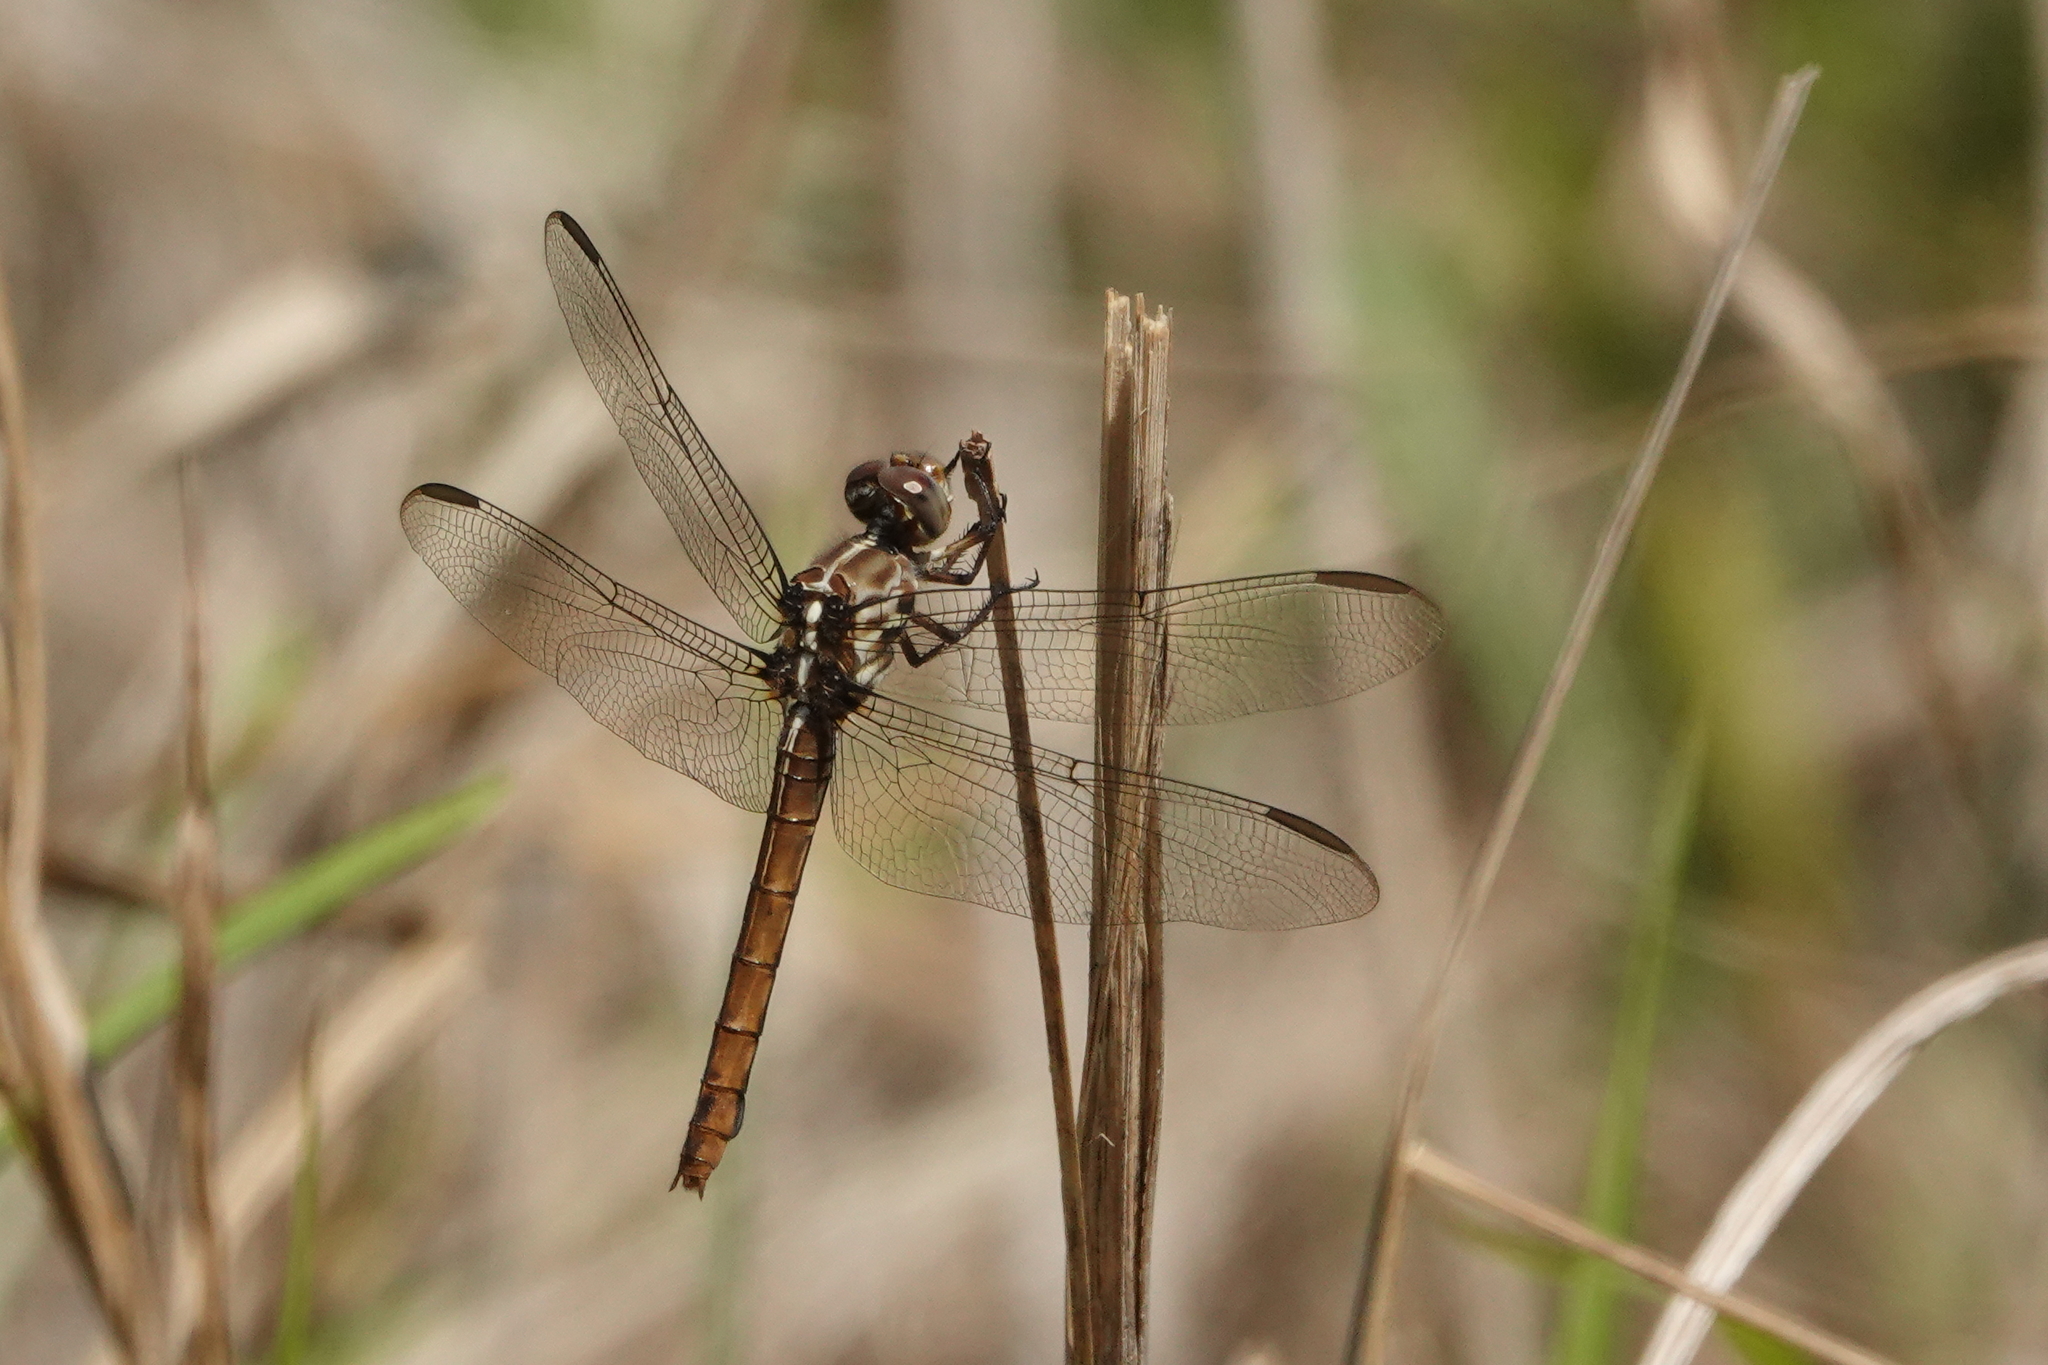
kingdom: Animalia
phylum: Arthropoda
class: Insecta
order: Odonata
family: Libellulidae
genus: Orthemis
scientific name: Orthemis ferruginea
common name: Roseate skimmer
